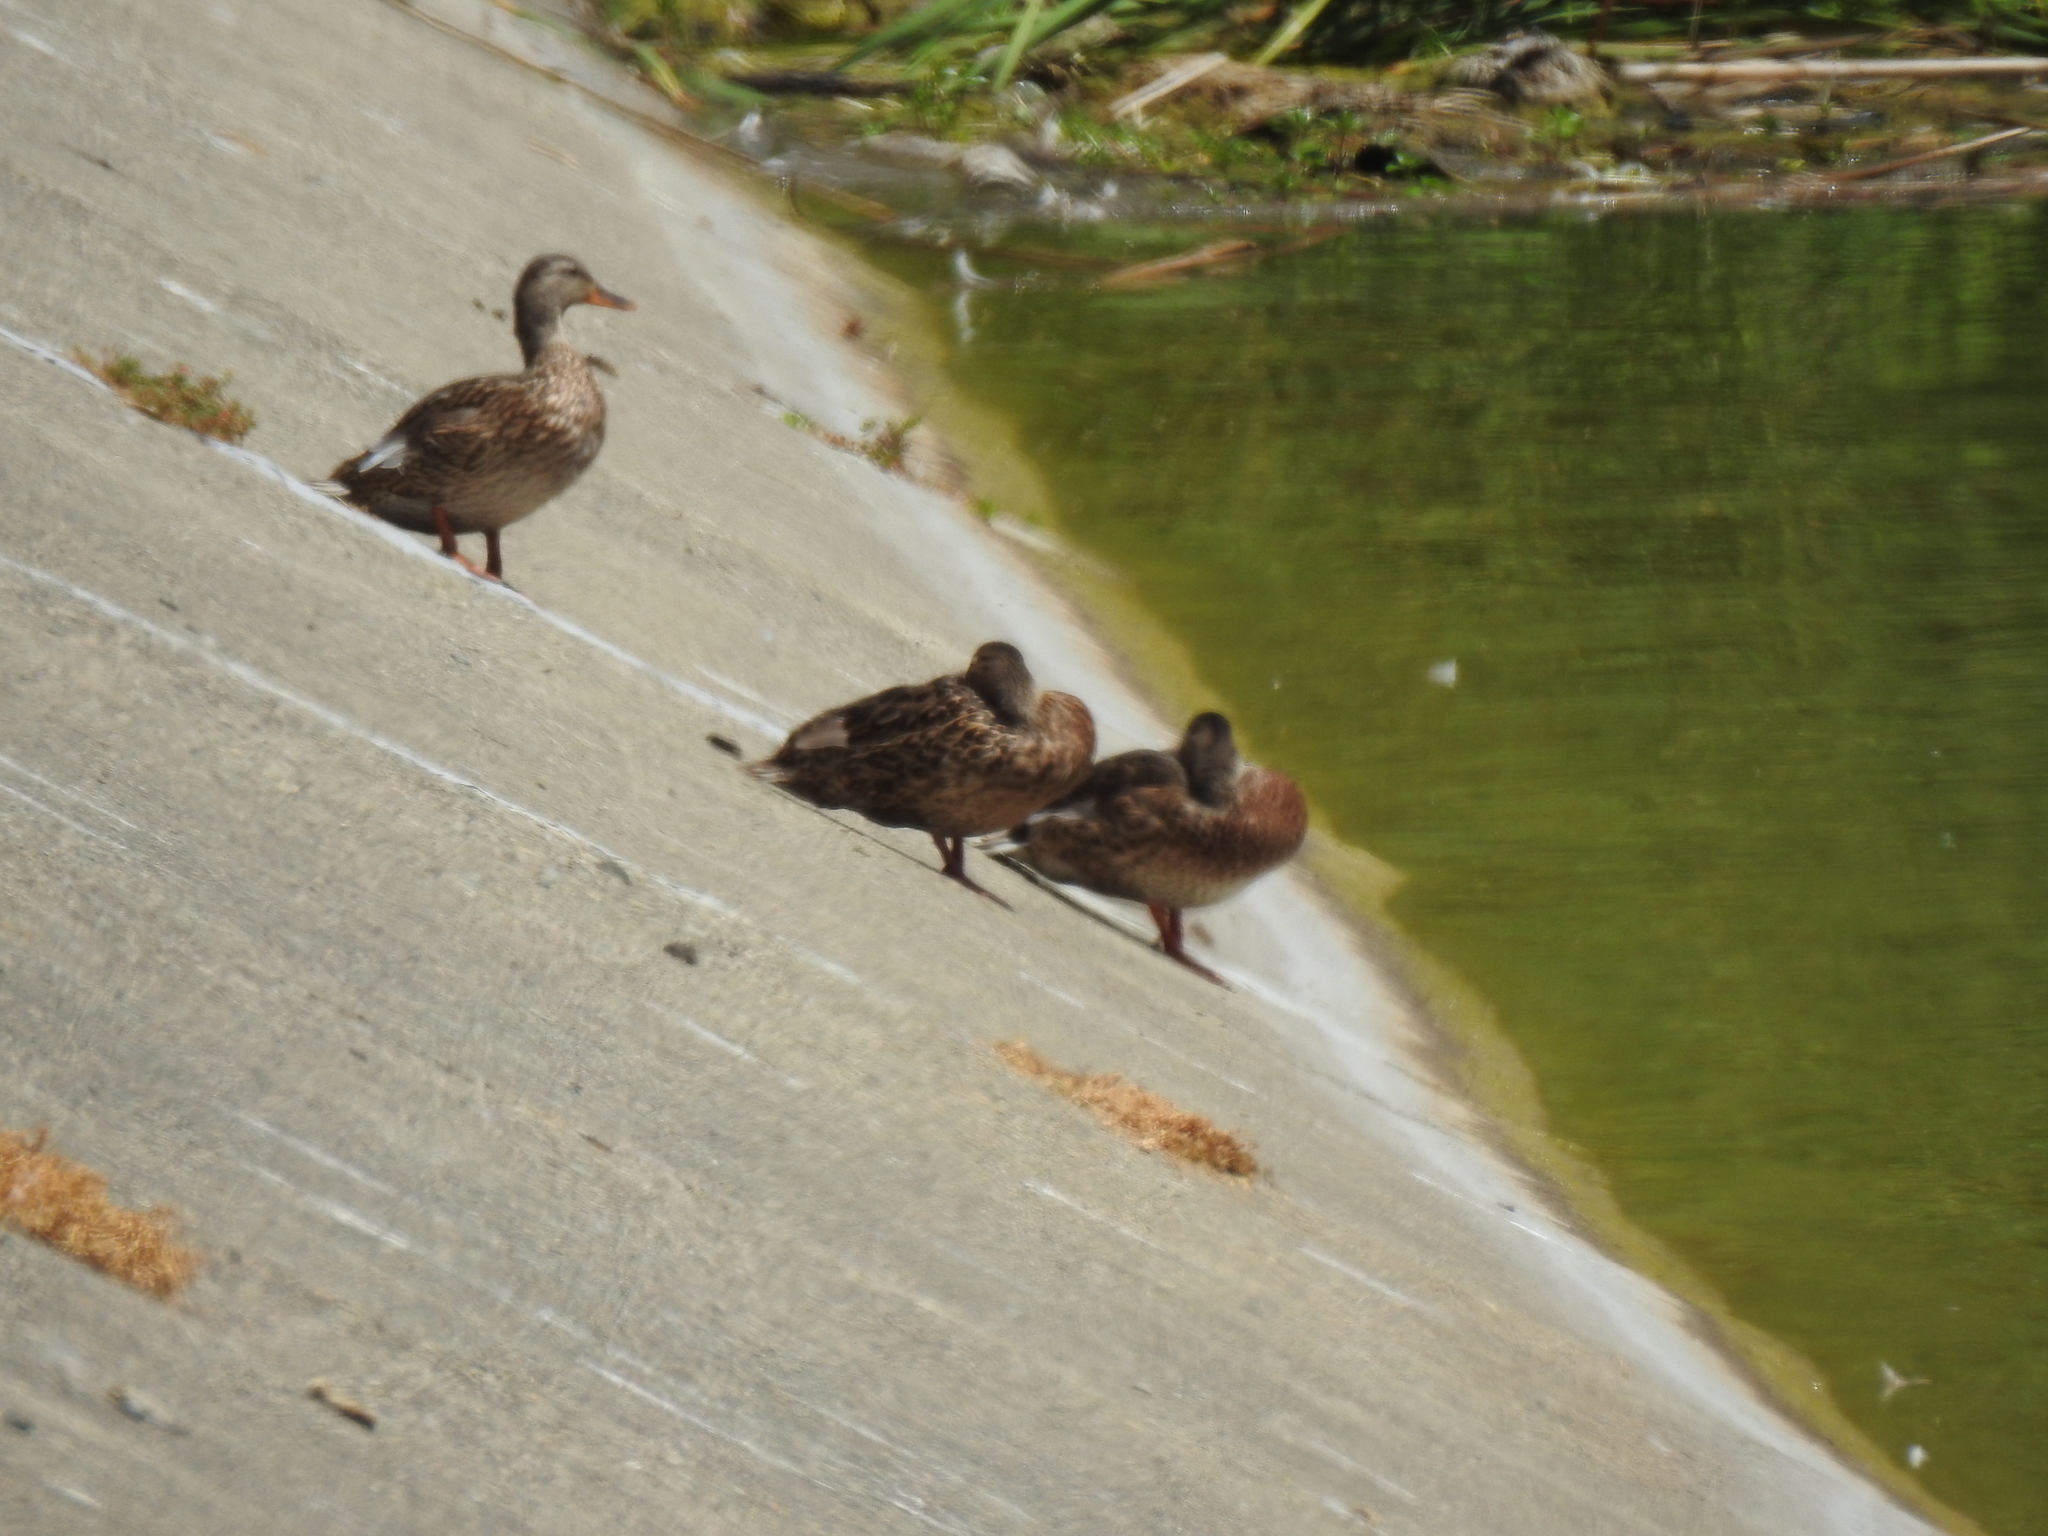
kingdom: Animalia
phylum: Chordata
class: Aves
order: Anseriformes
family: Anatidae
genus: Anas
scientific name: Anas platyrhynchos
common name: Mallard
